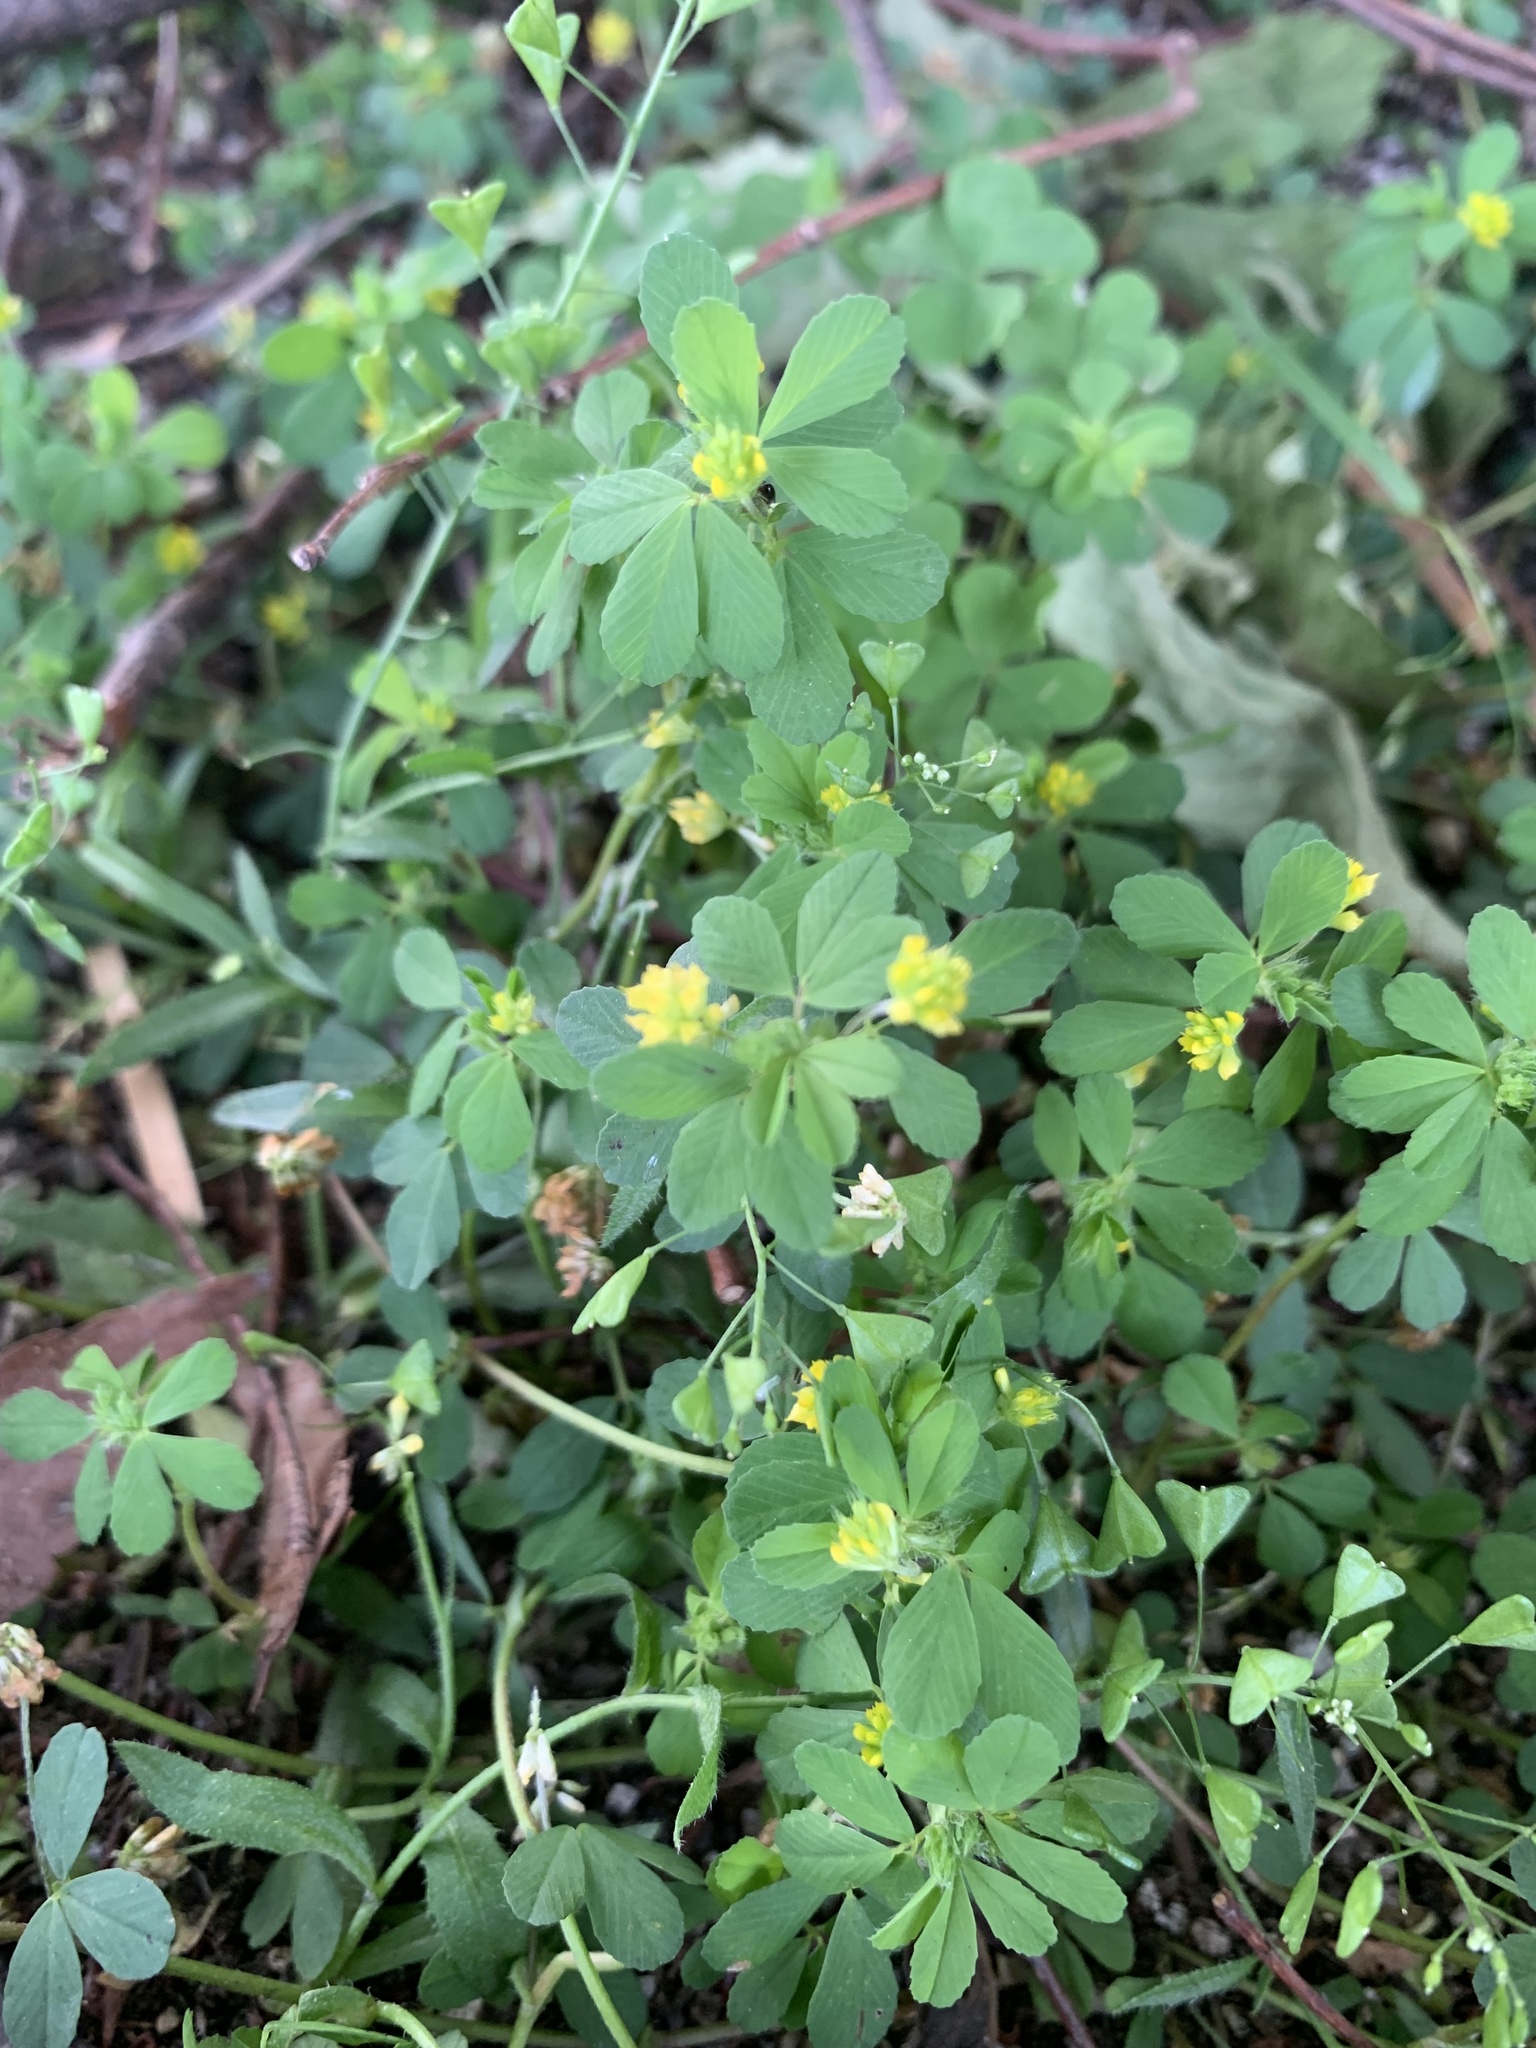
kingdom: Plantae
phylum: Tracheophyta
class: Magnoliopsida
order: Fabales
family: Fabaceae
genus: Trifolium
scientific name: Trifolium dubium
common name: Suckling clover
